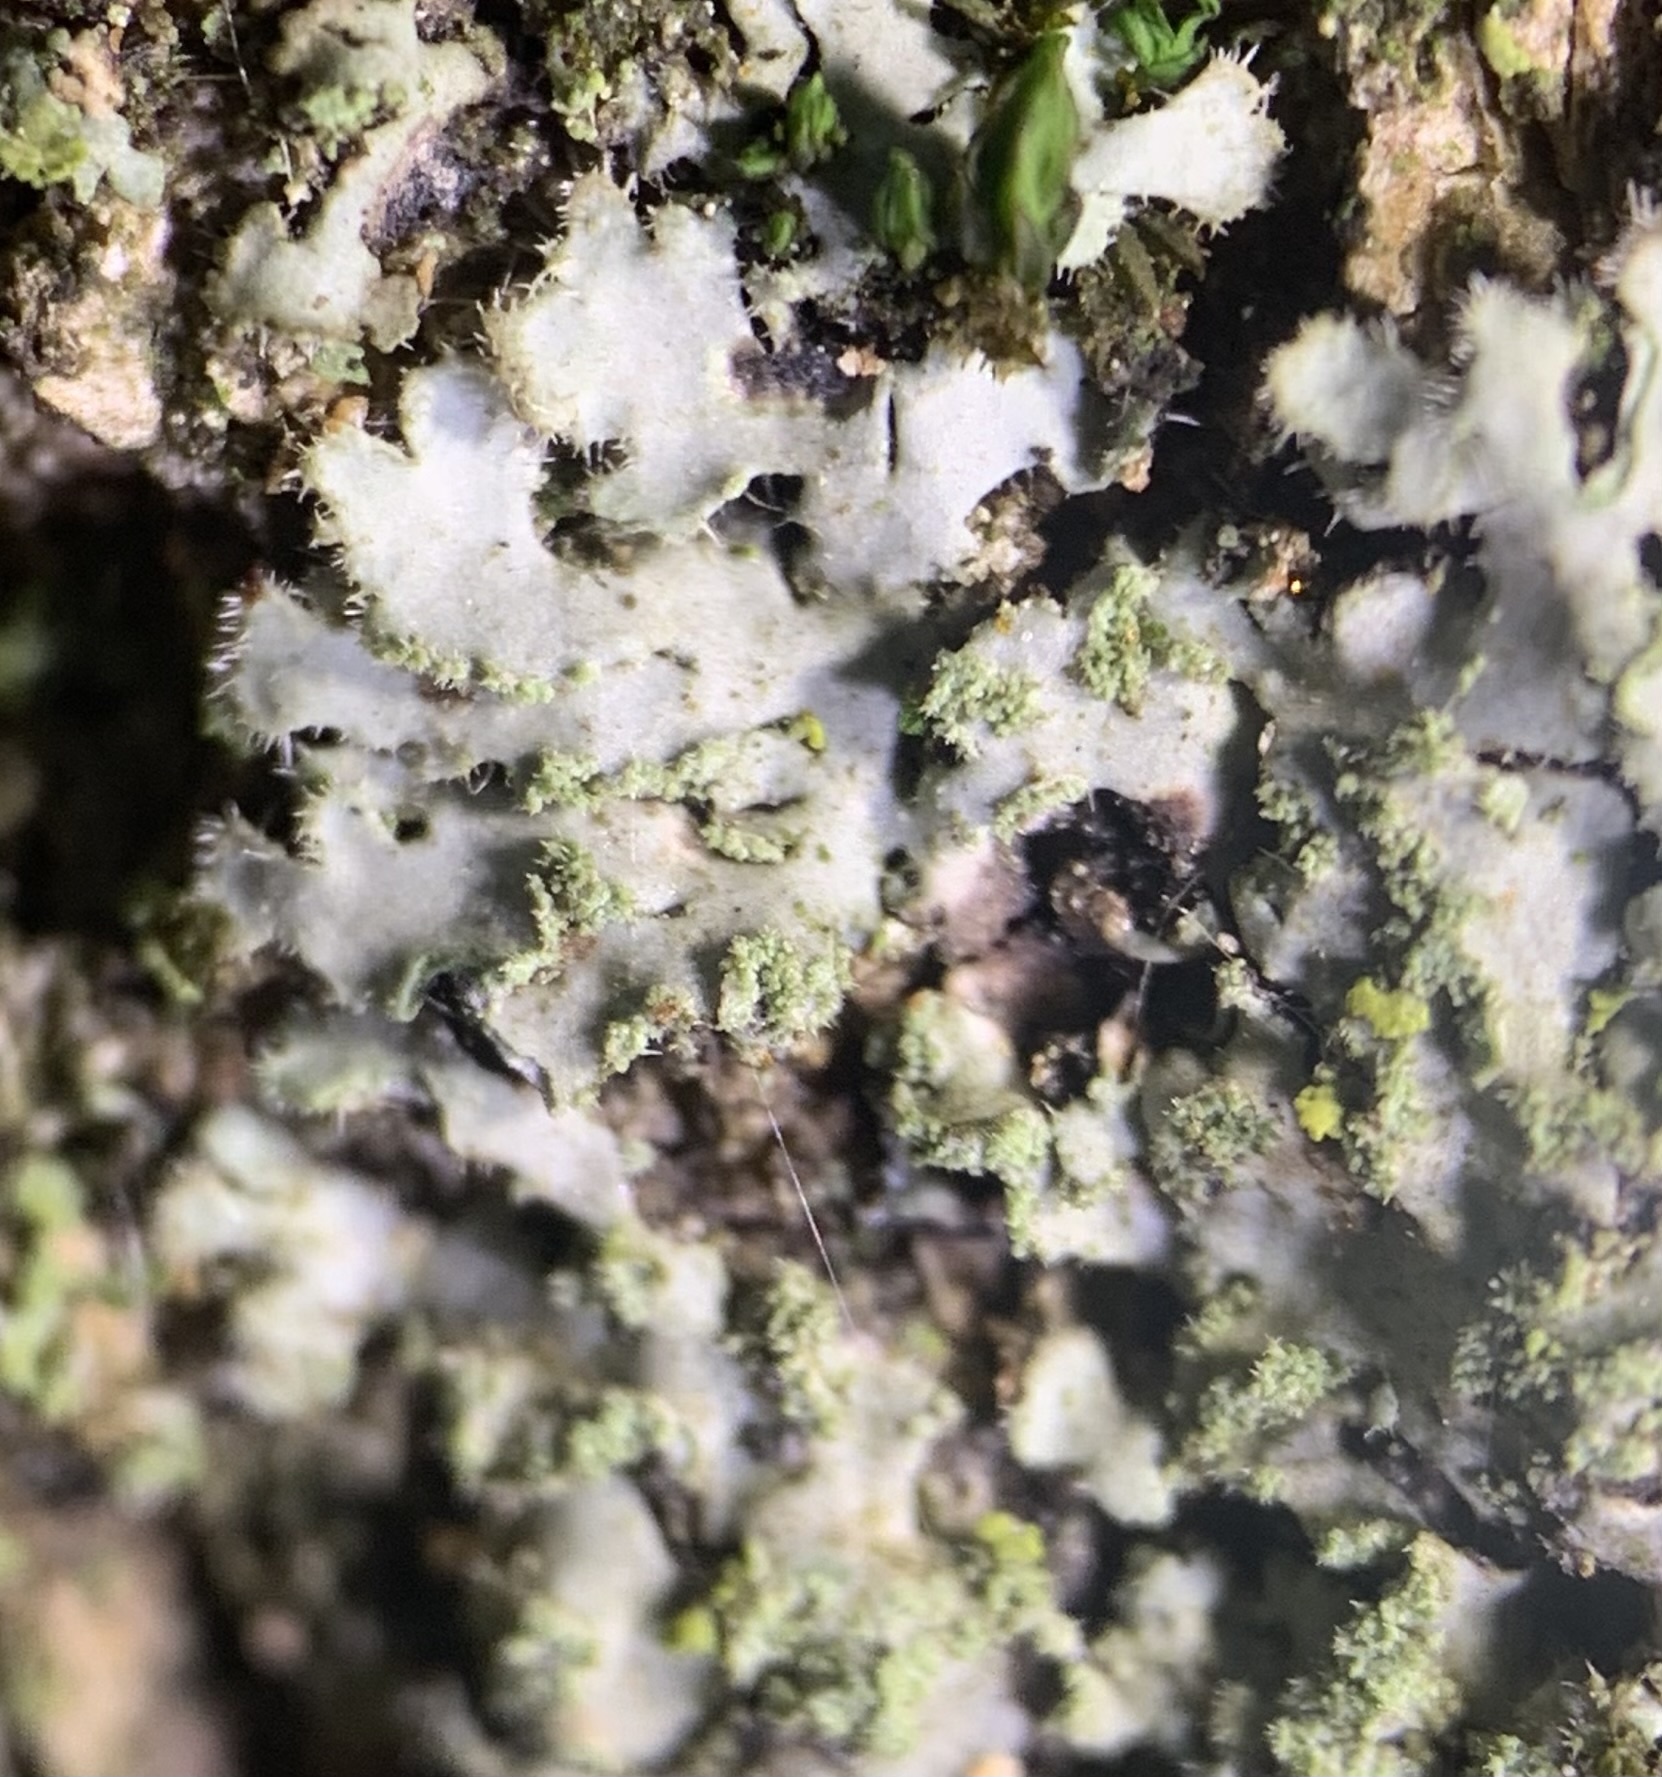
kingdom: Fungi
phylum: Ascomycota
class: Lecanoromycetes
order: Caliciales
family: Physciaceae
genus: Phaeophyscia
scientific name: Phaeophyscia hirsuta
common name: Hairy shadow lichen
